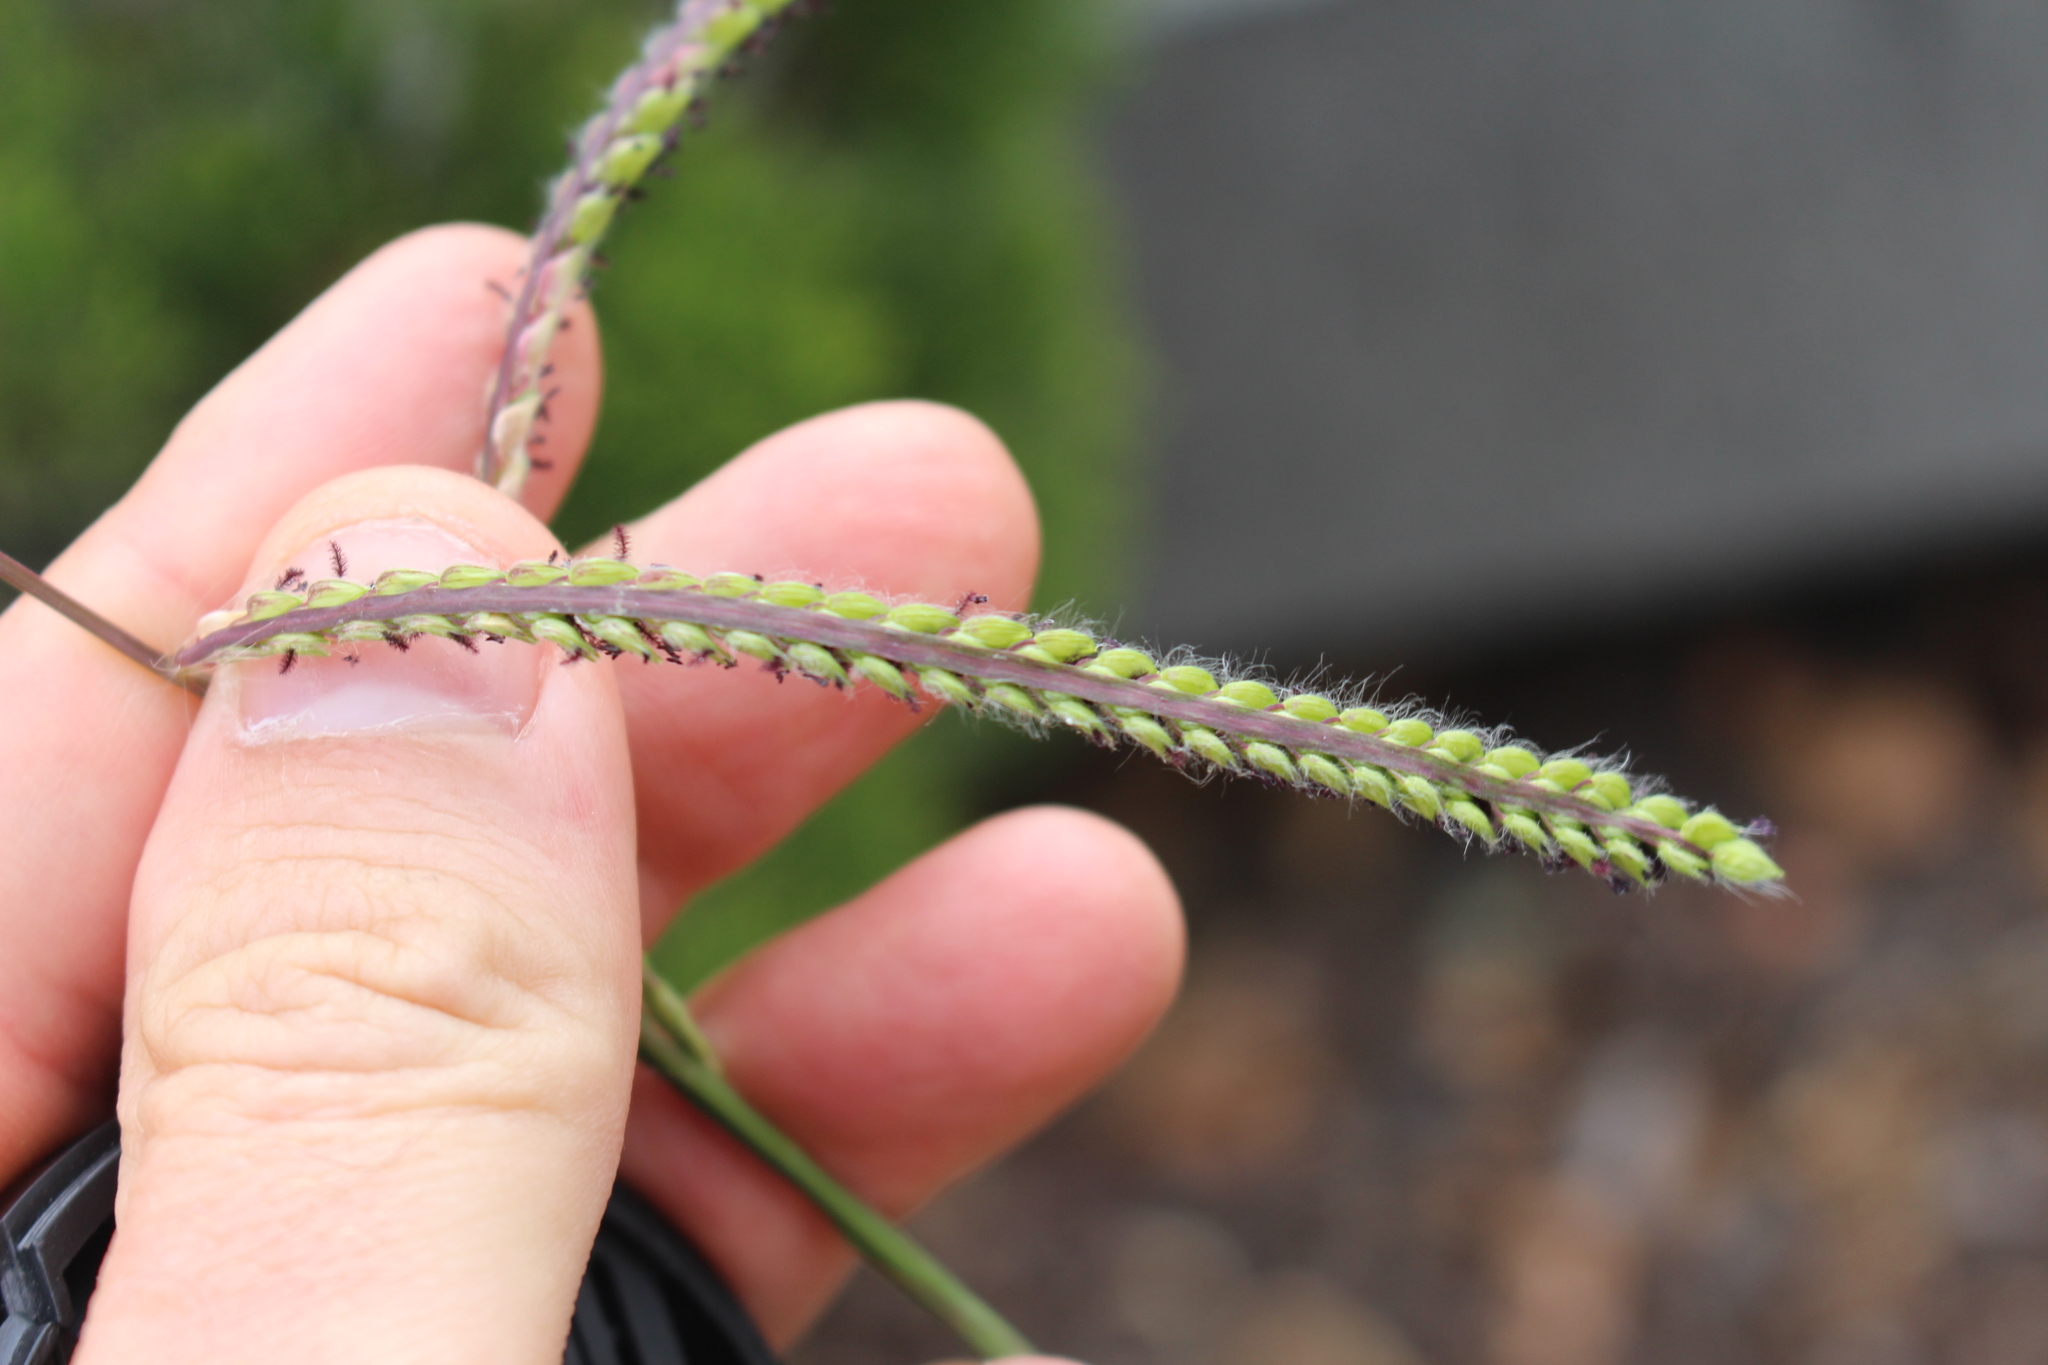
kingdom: Plantae
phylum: Tracheophyta
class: Liliopsida
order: Poales
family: Poaceae
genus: Paspalum
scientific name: Paspalum dilatatum
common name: Dallisgrass
